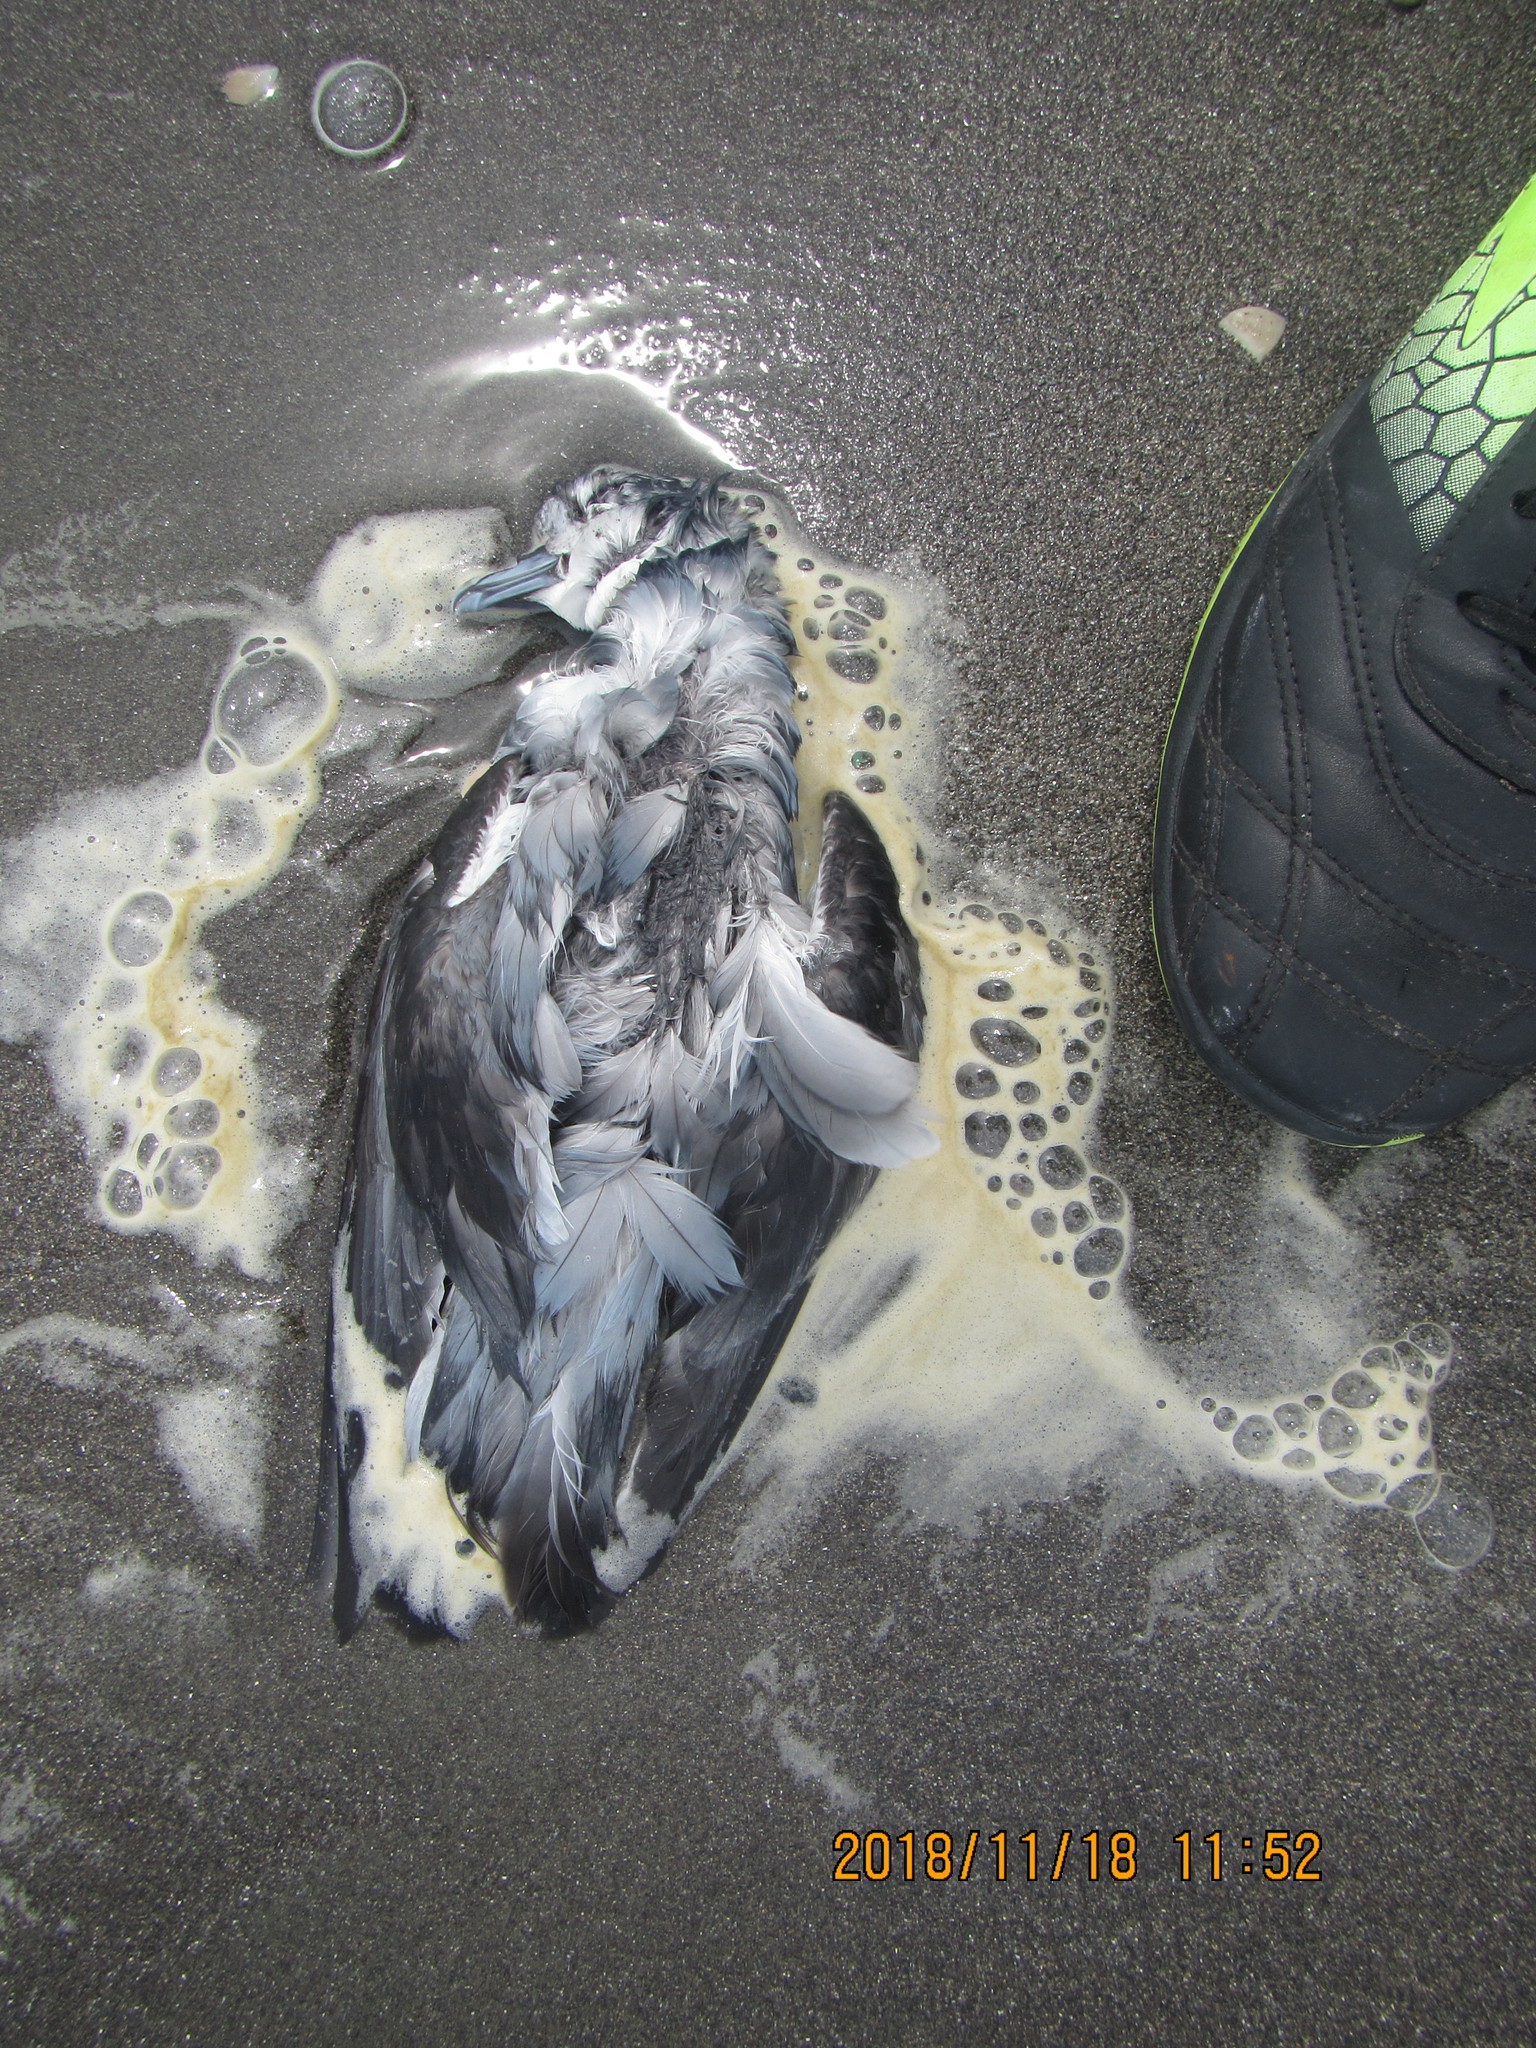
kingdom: Animalia
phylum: Chordata
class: Aves
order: Procellariiformes
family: Procellariidae
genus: Pachyptila
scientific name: Pachyptila turtur
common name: Fairy prion
